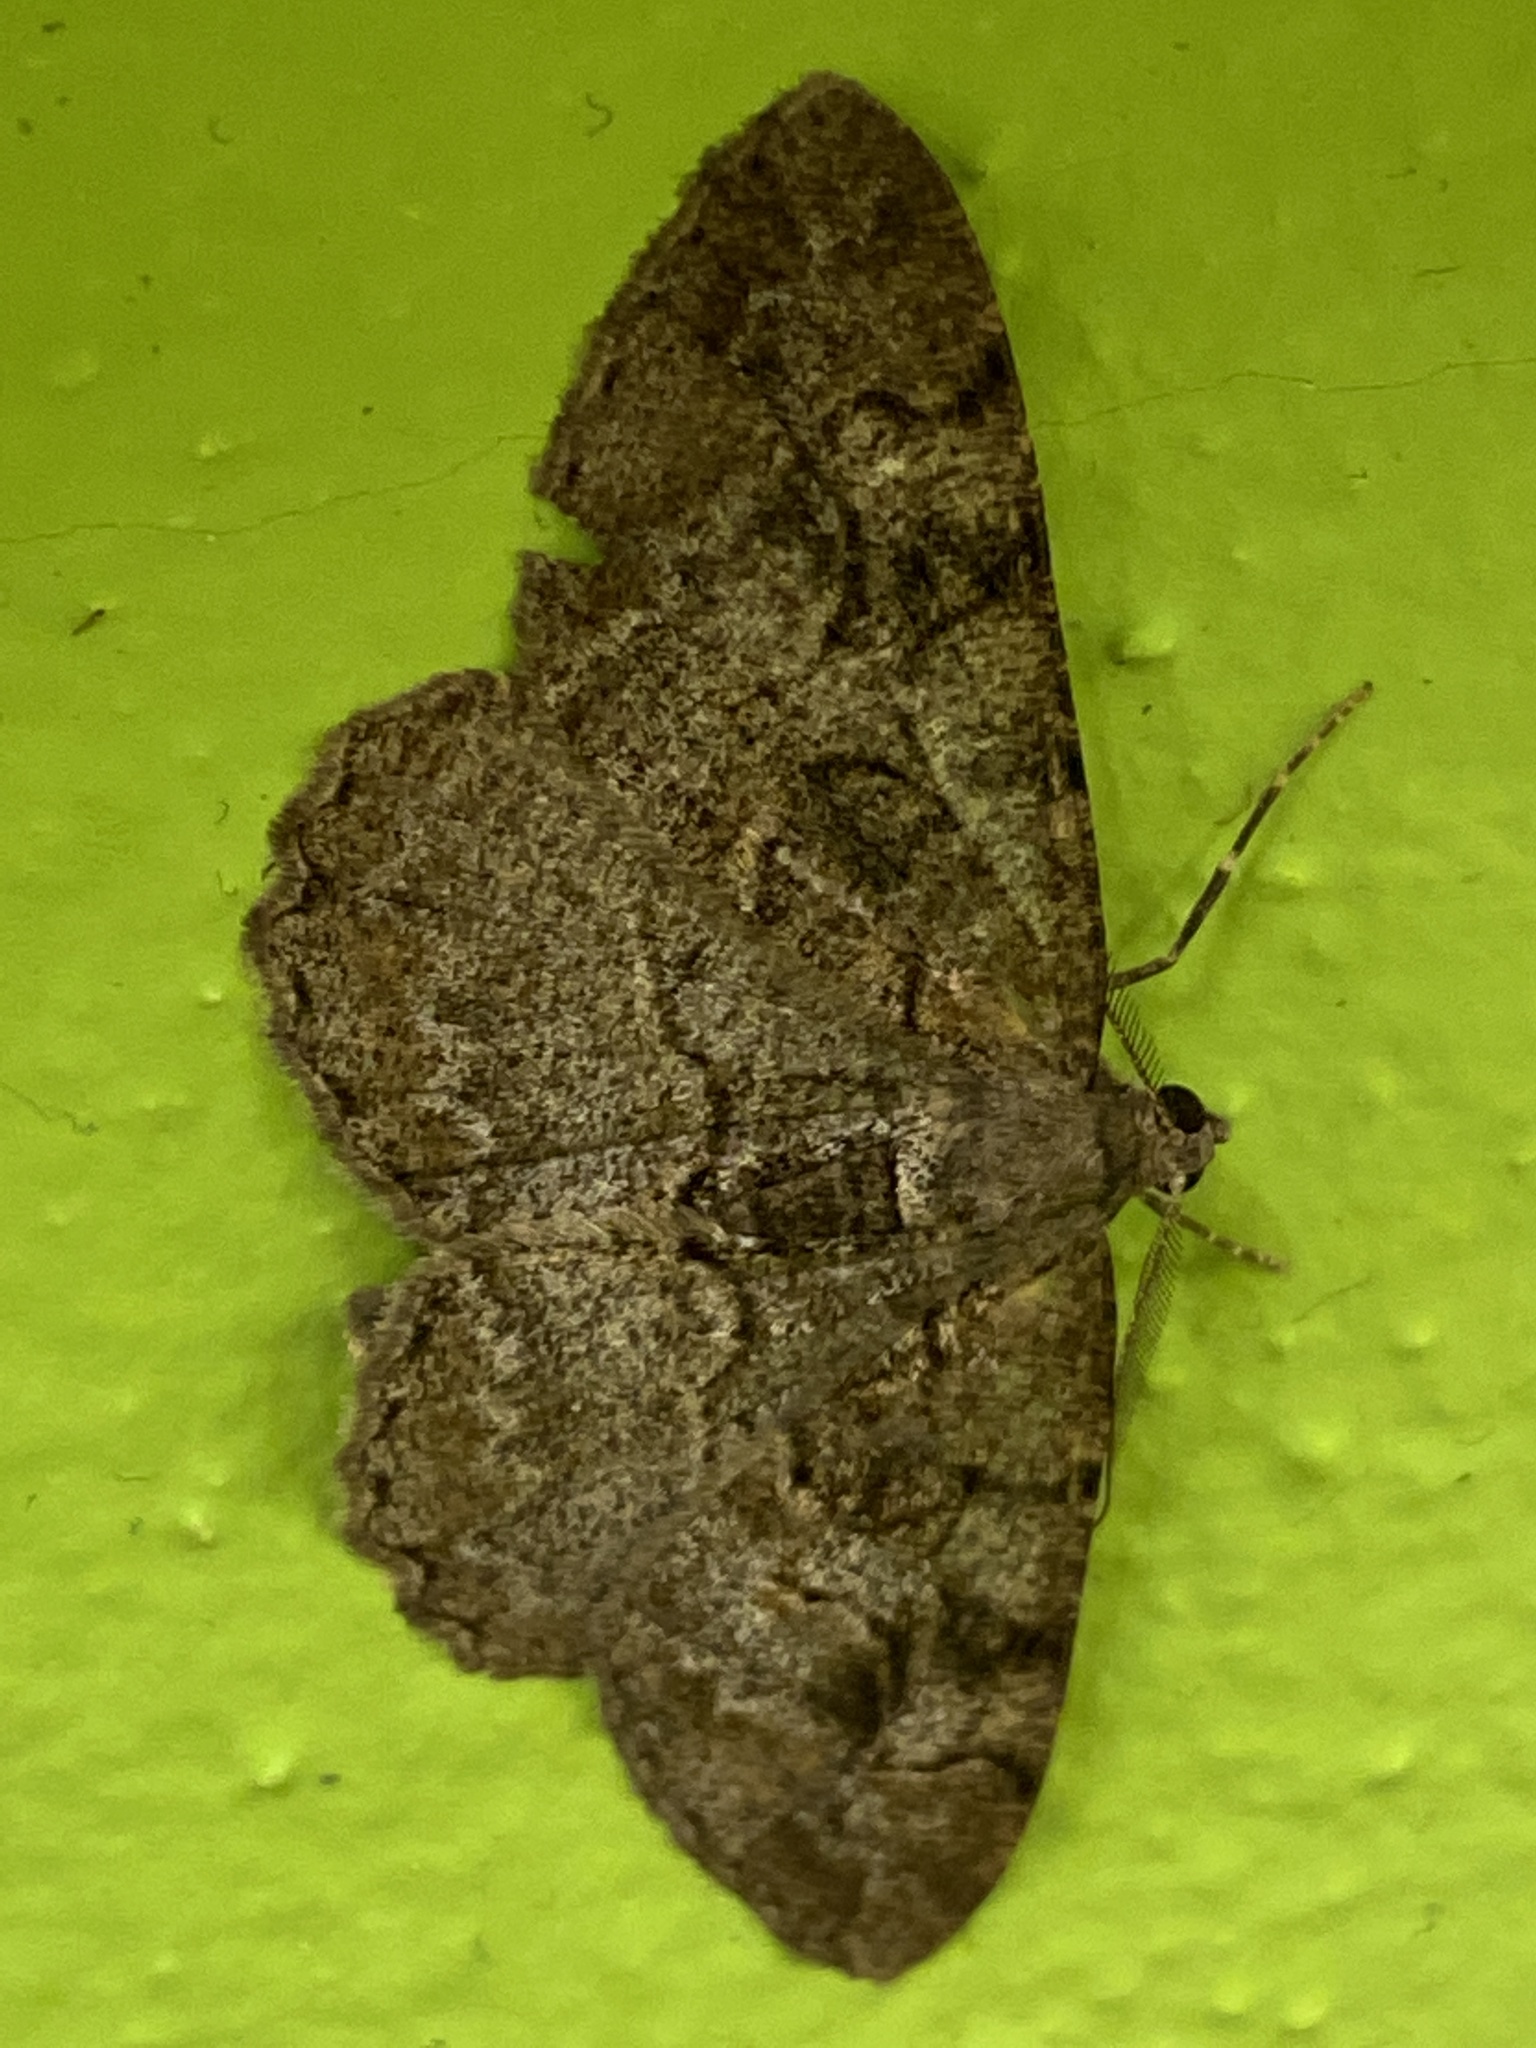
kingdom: Animalia
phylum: Arthropoda
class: Insecta
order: Lepidoptera
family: Geometridae
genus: Alcis
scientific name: Alcis repandata
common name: Mottled beauty
